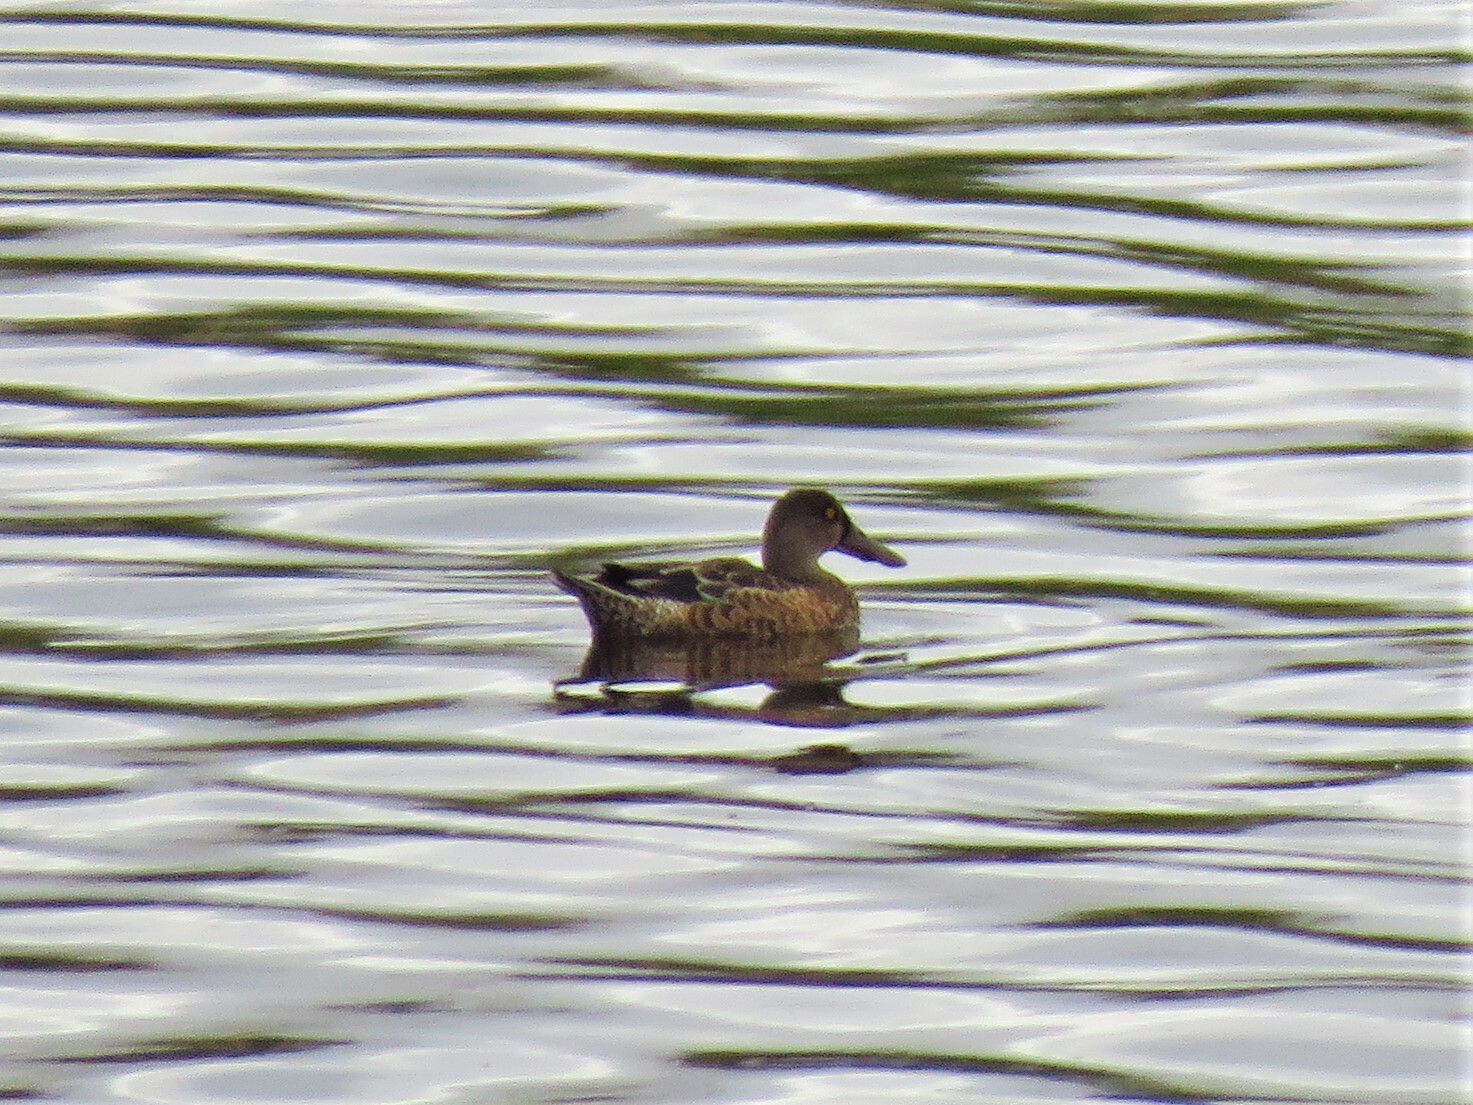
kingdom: Animalia
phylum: Chordata
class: Aves
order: Anseriformes
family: Anatidae
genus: Spatula
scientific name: Spatula clypeata
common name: Northern shoveler
